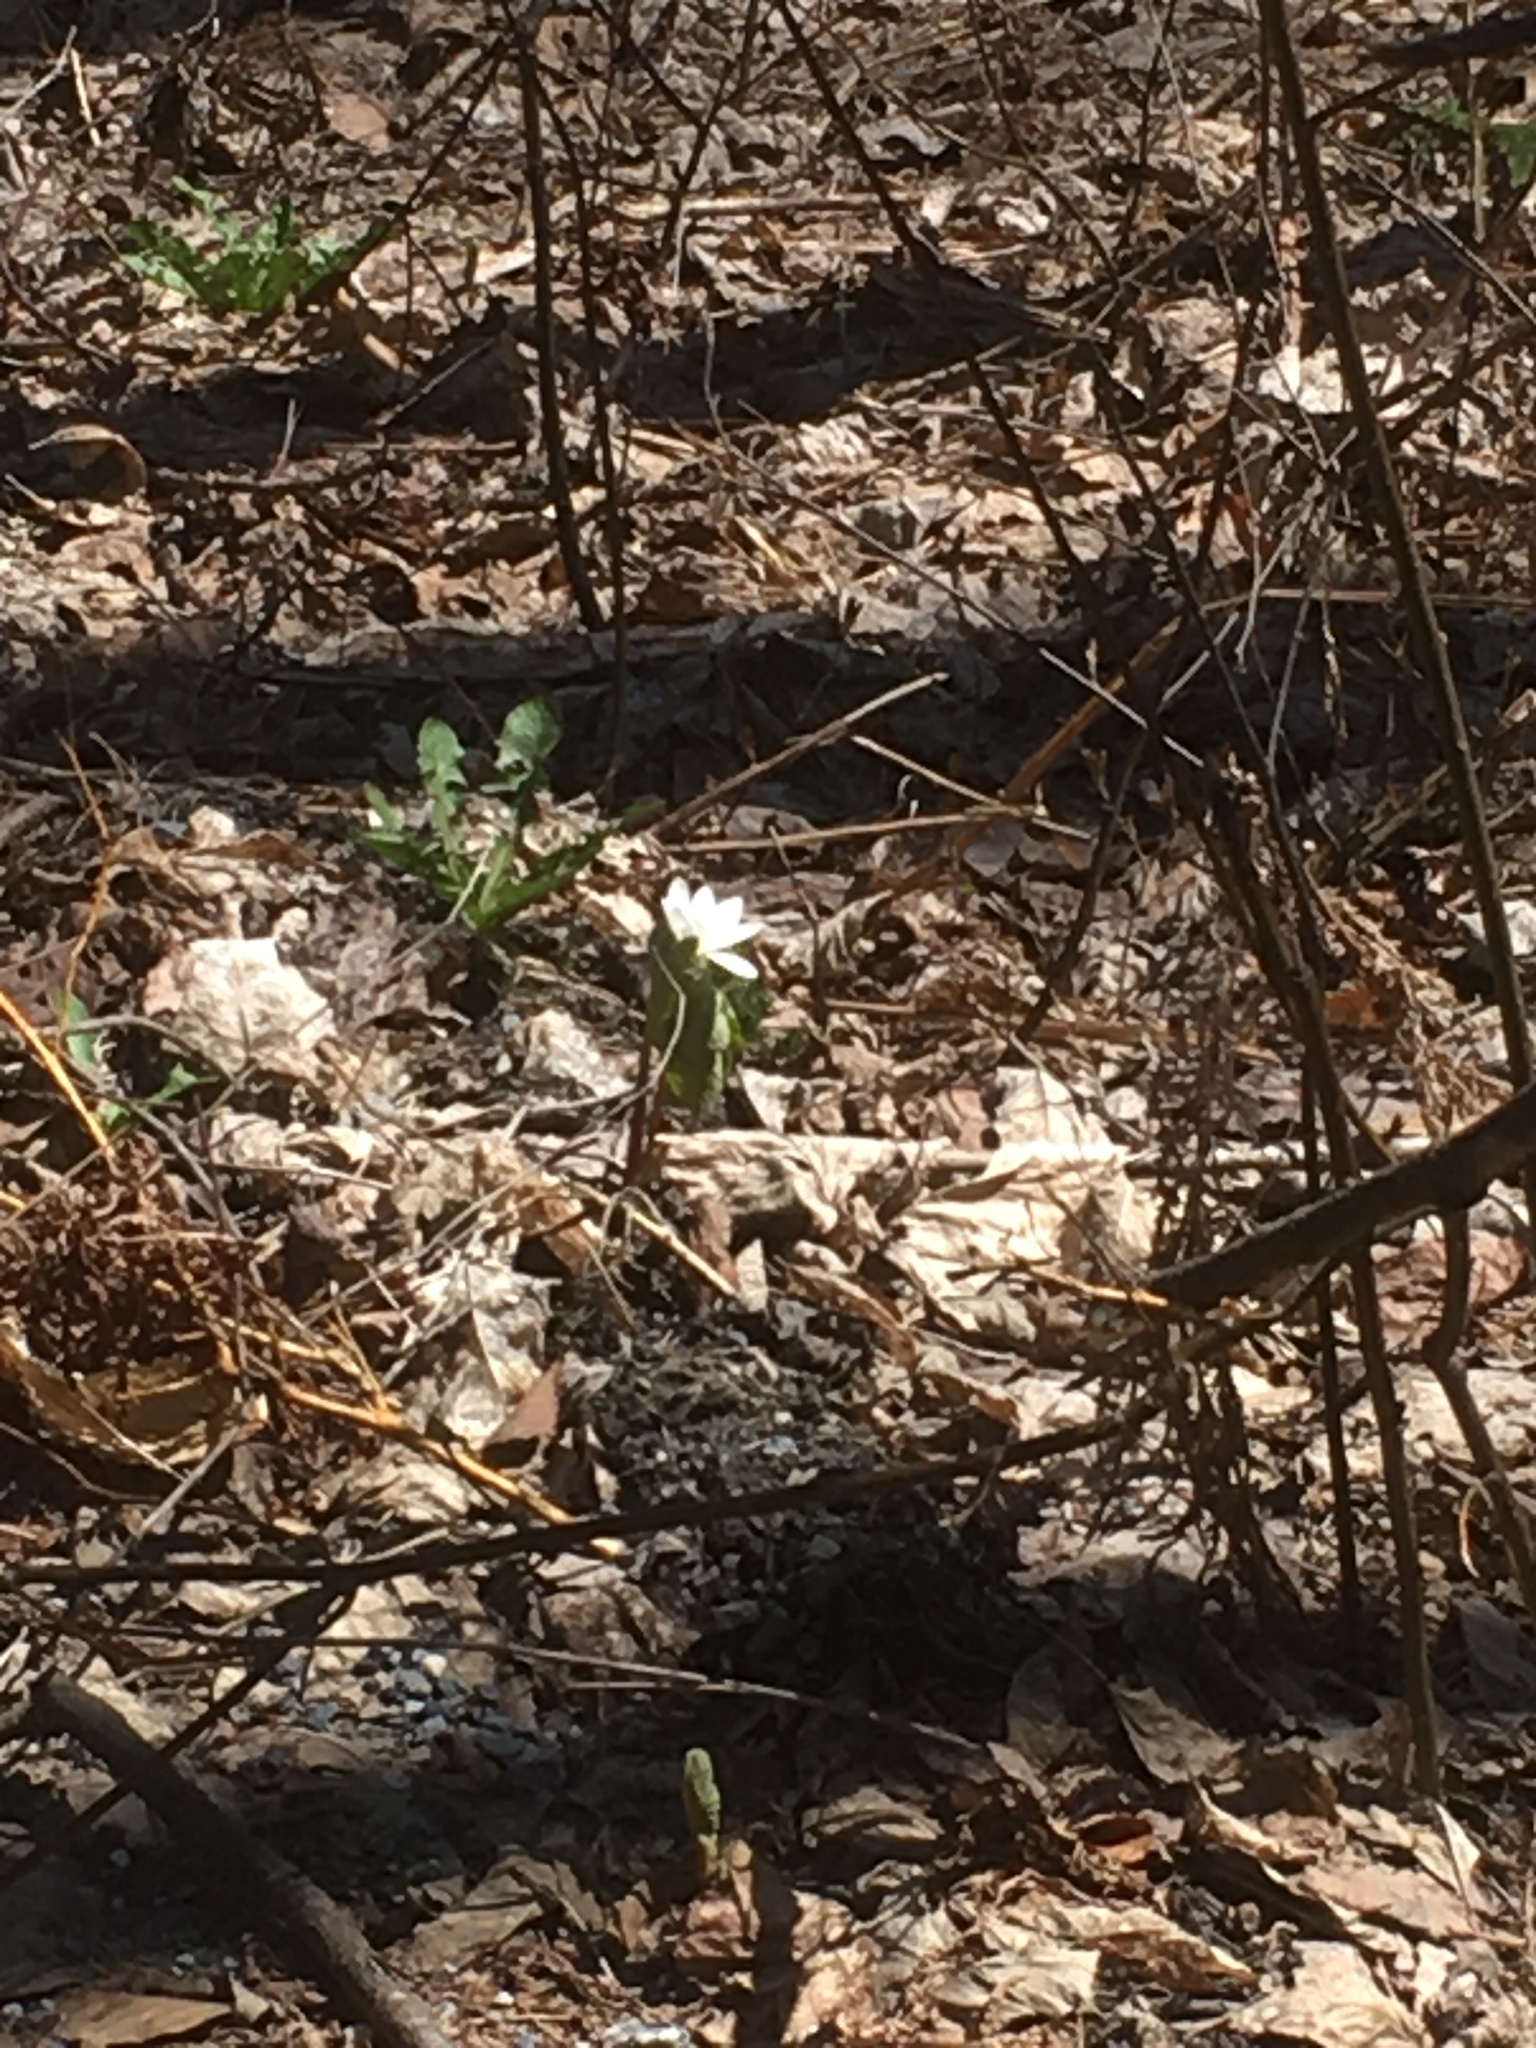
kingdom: Plantae
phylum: Tracheophyta
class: Magnoliopsida
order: Ranunculales
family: Papaveraceae
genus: Sanguinaria
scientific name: Sanguinaria canadensis
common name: Bloodroot
